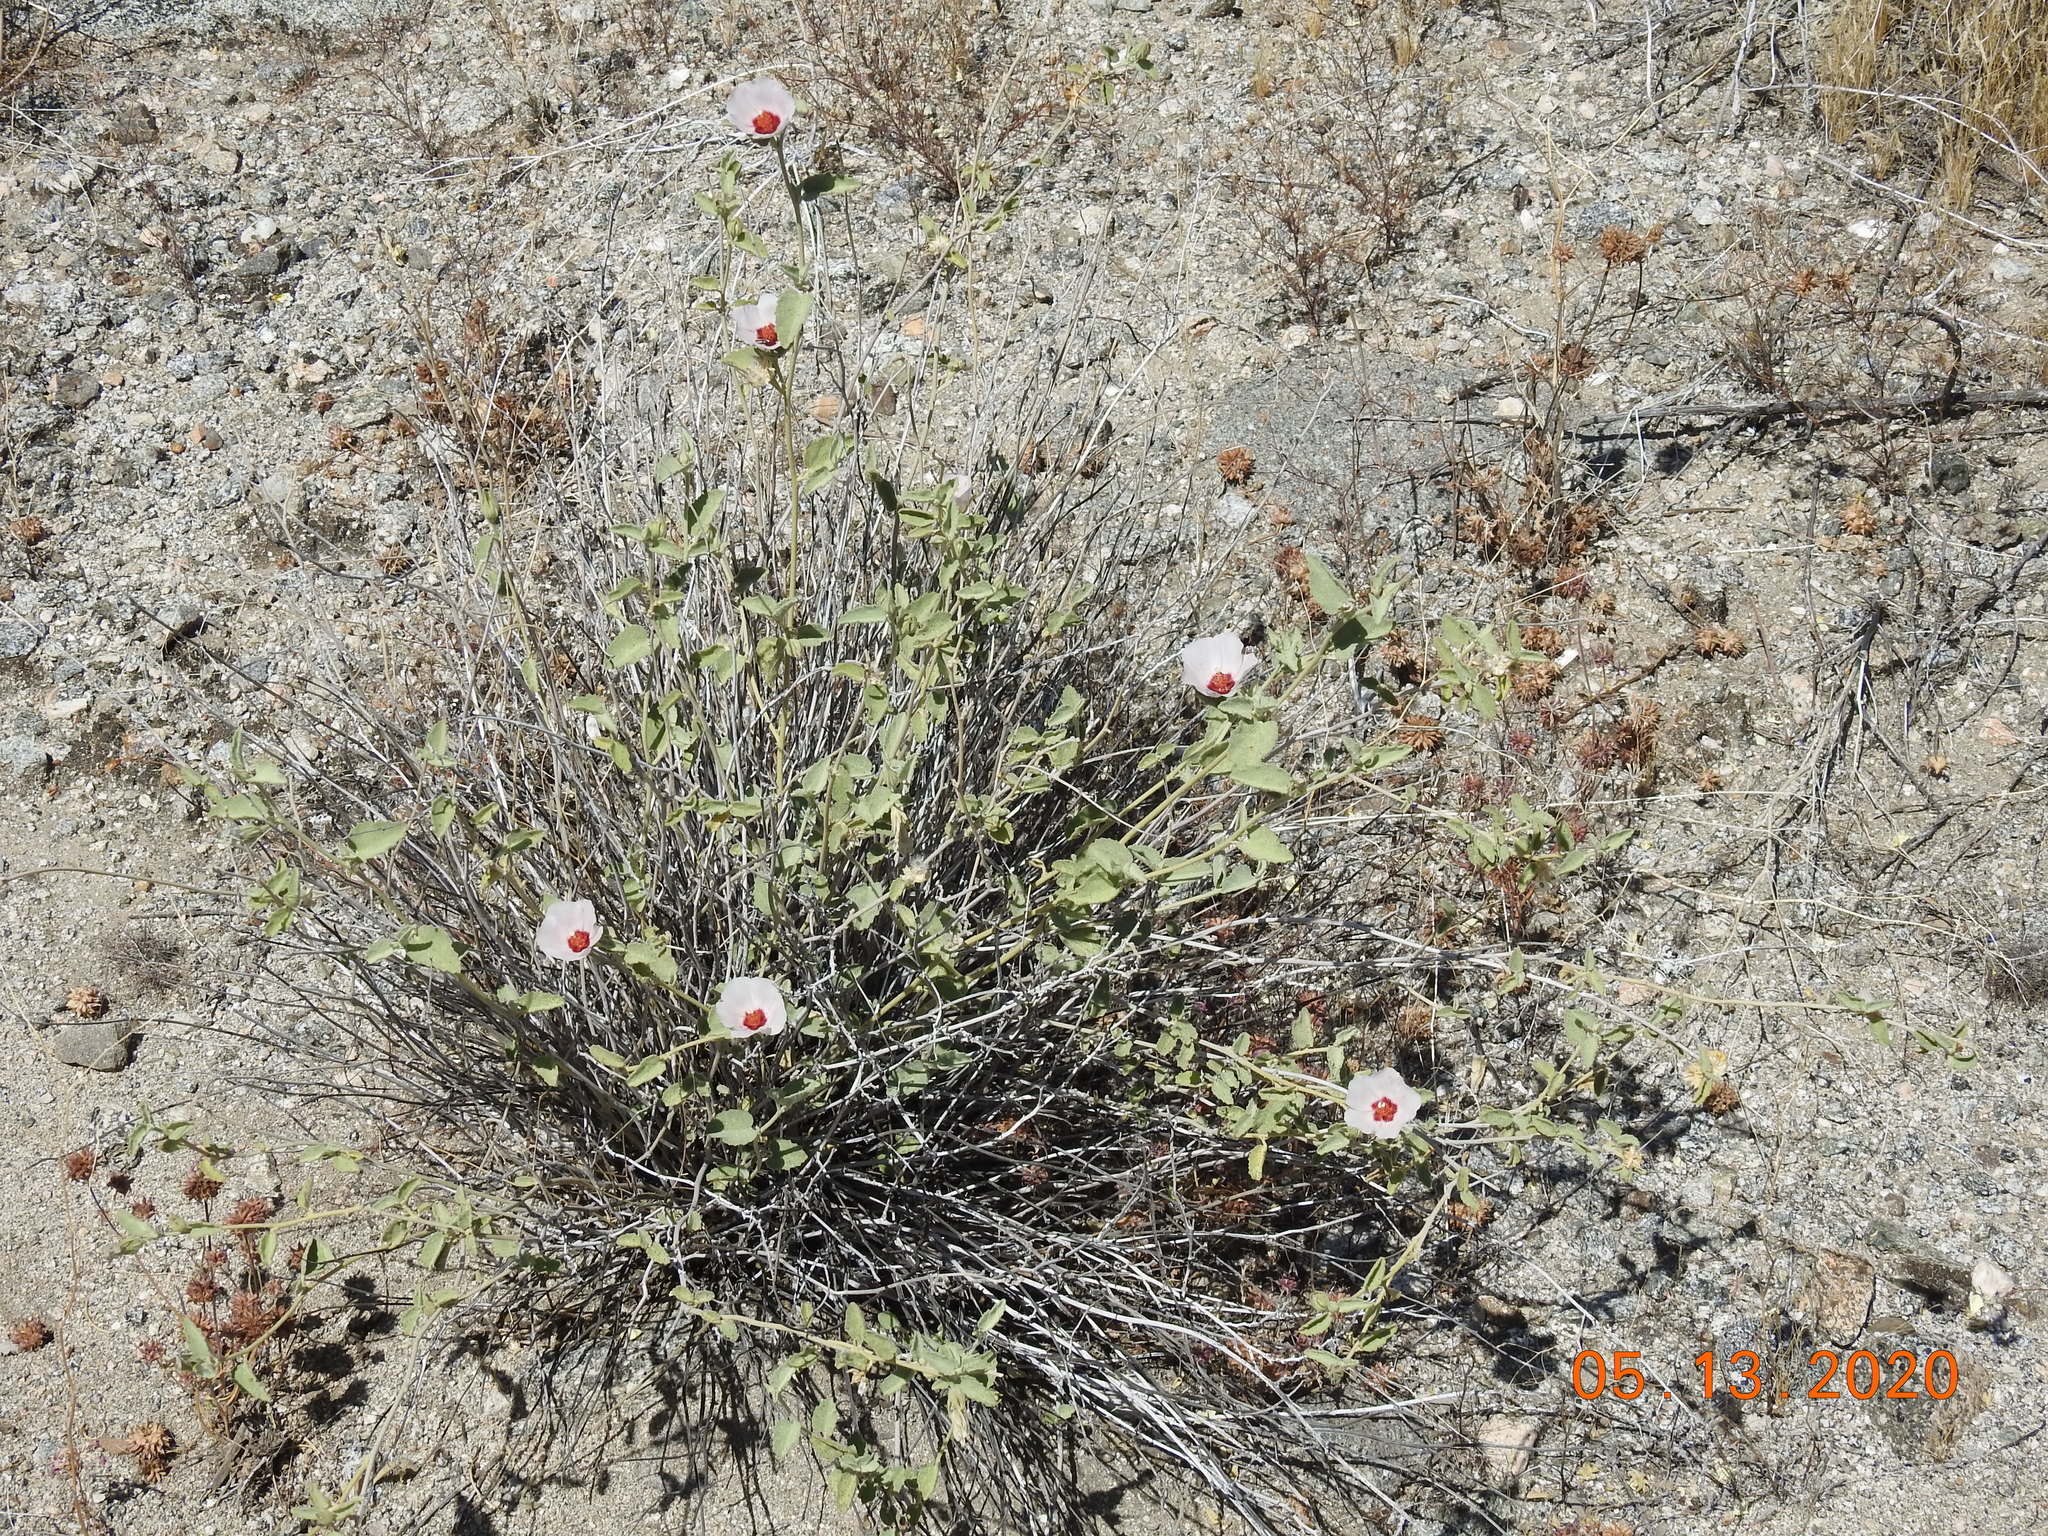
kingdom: Plantae
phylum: Tracheophyta
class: Magnoliopsida
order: Malvales
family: Malvaceae
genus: Hibiscus
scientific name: Hibiscus denudatus
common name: Paleface
